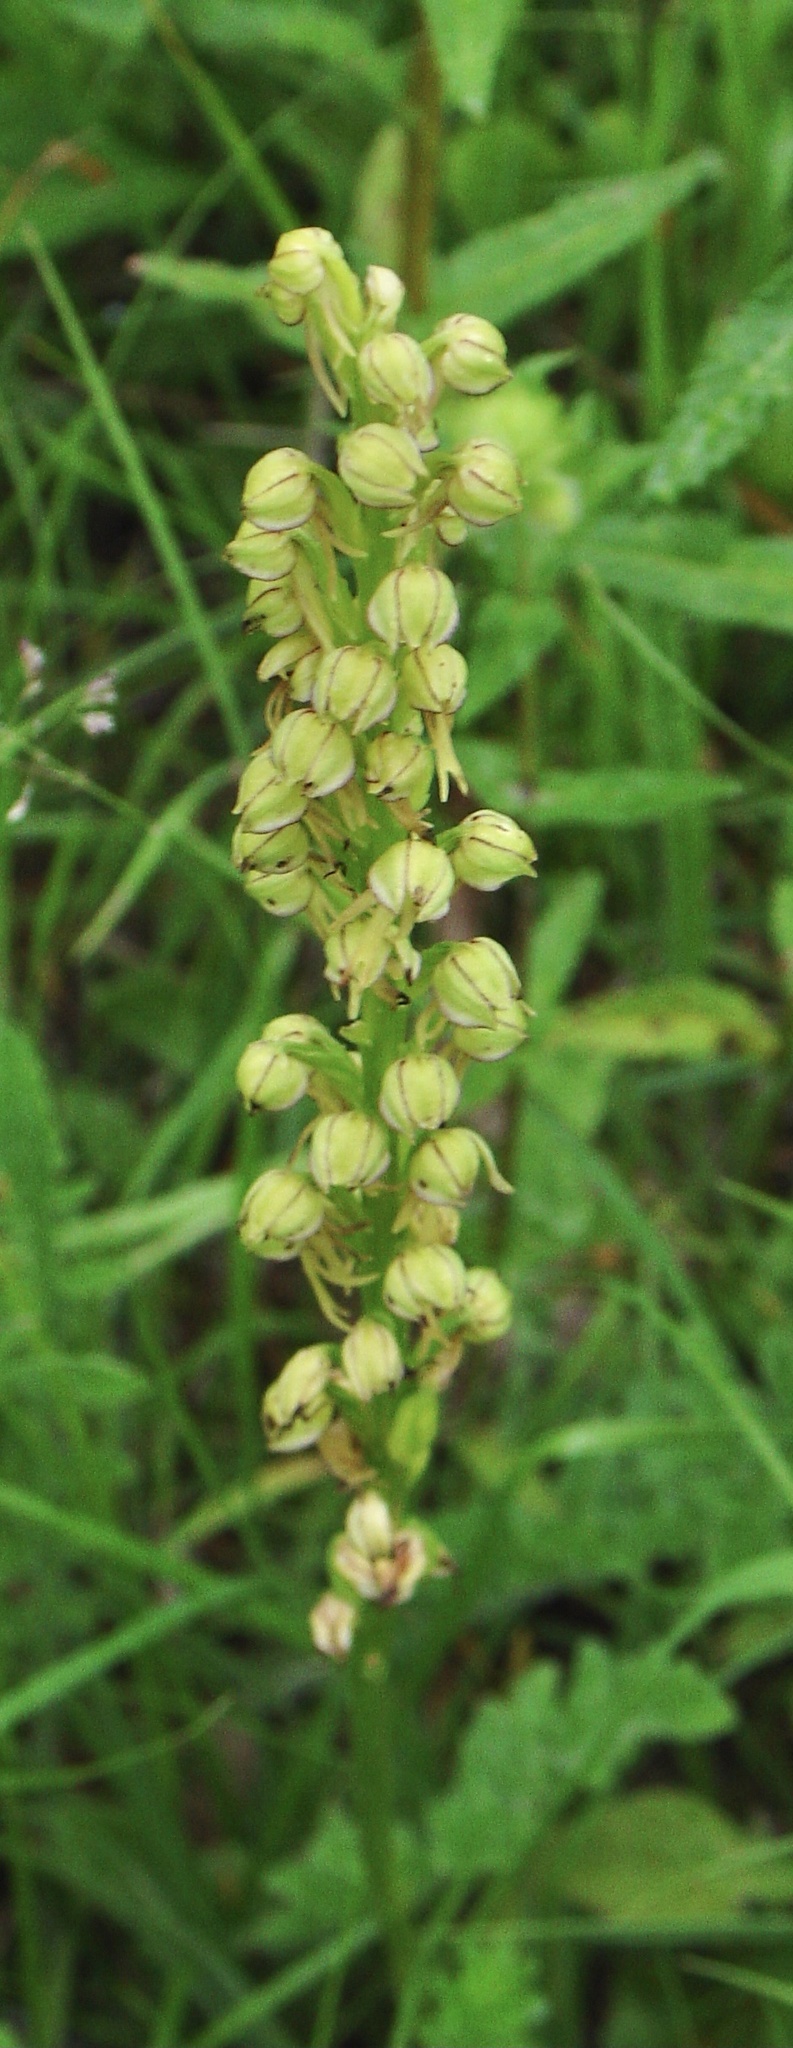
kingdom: Plantae
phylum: Tracheophyta
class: Liliopsida
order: Asparagales
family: Orchidaceae
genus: Orchis
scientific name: Orchis anthropophora
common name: Man orchid
